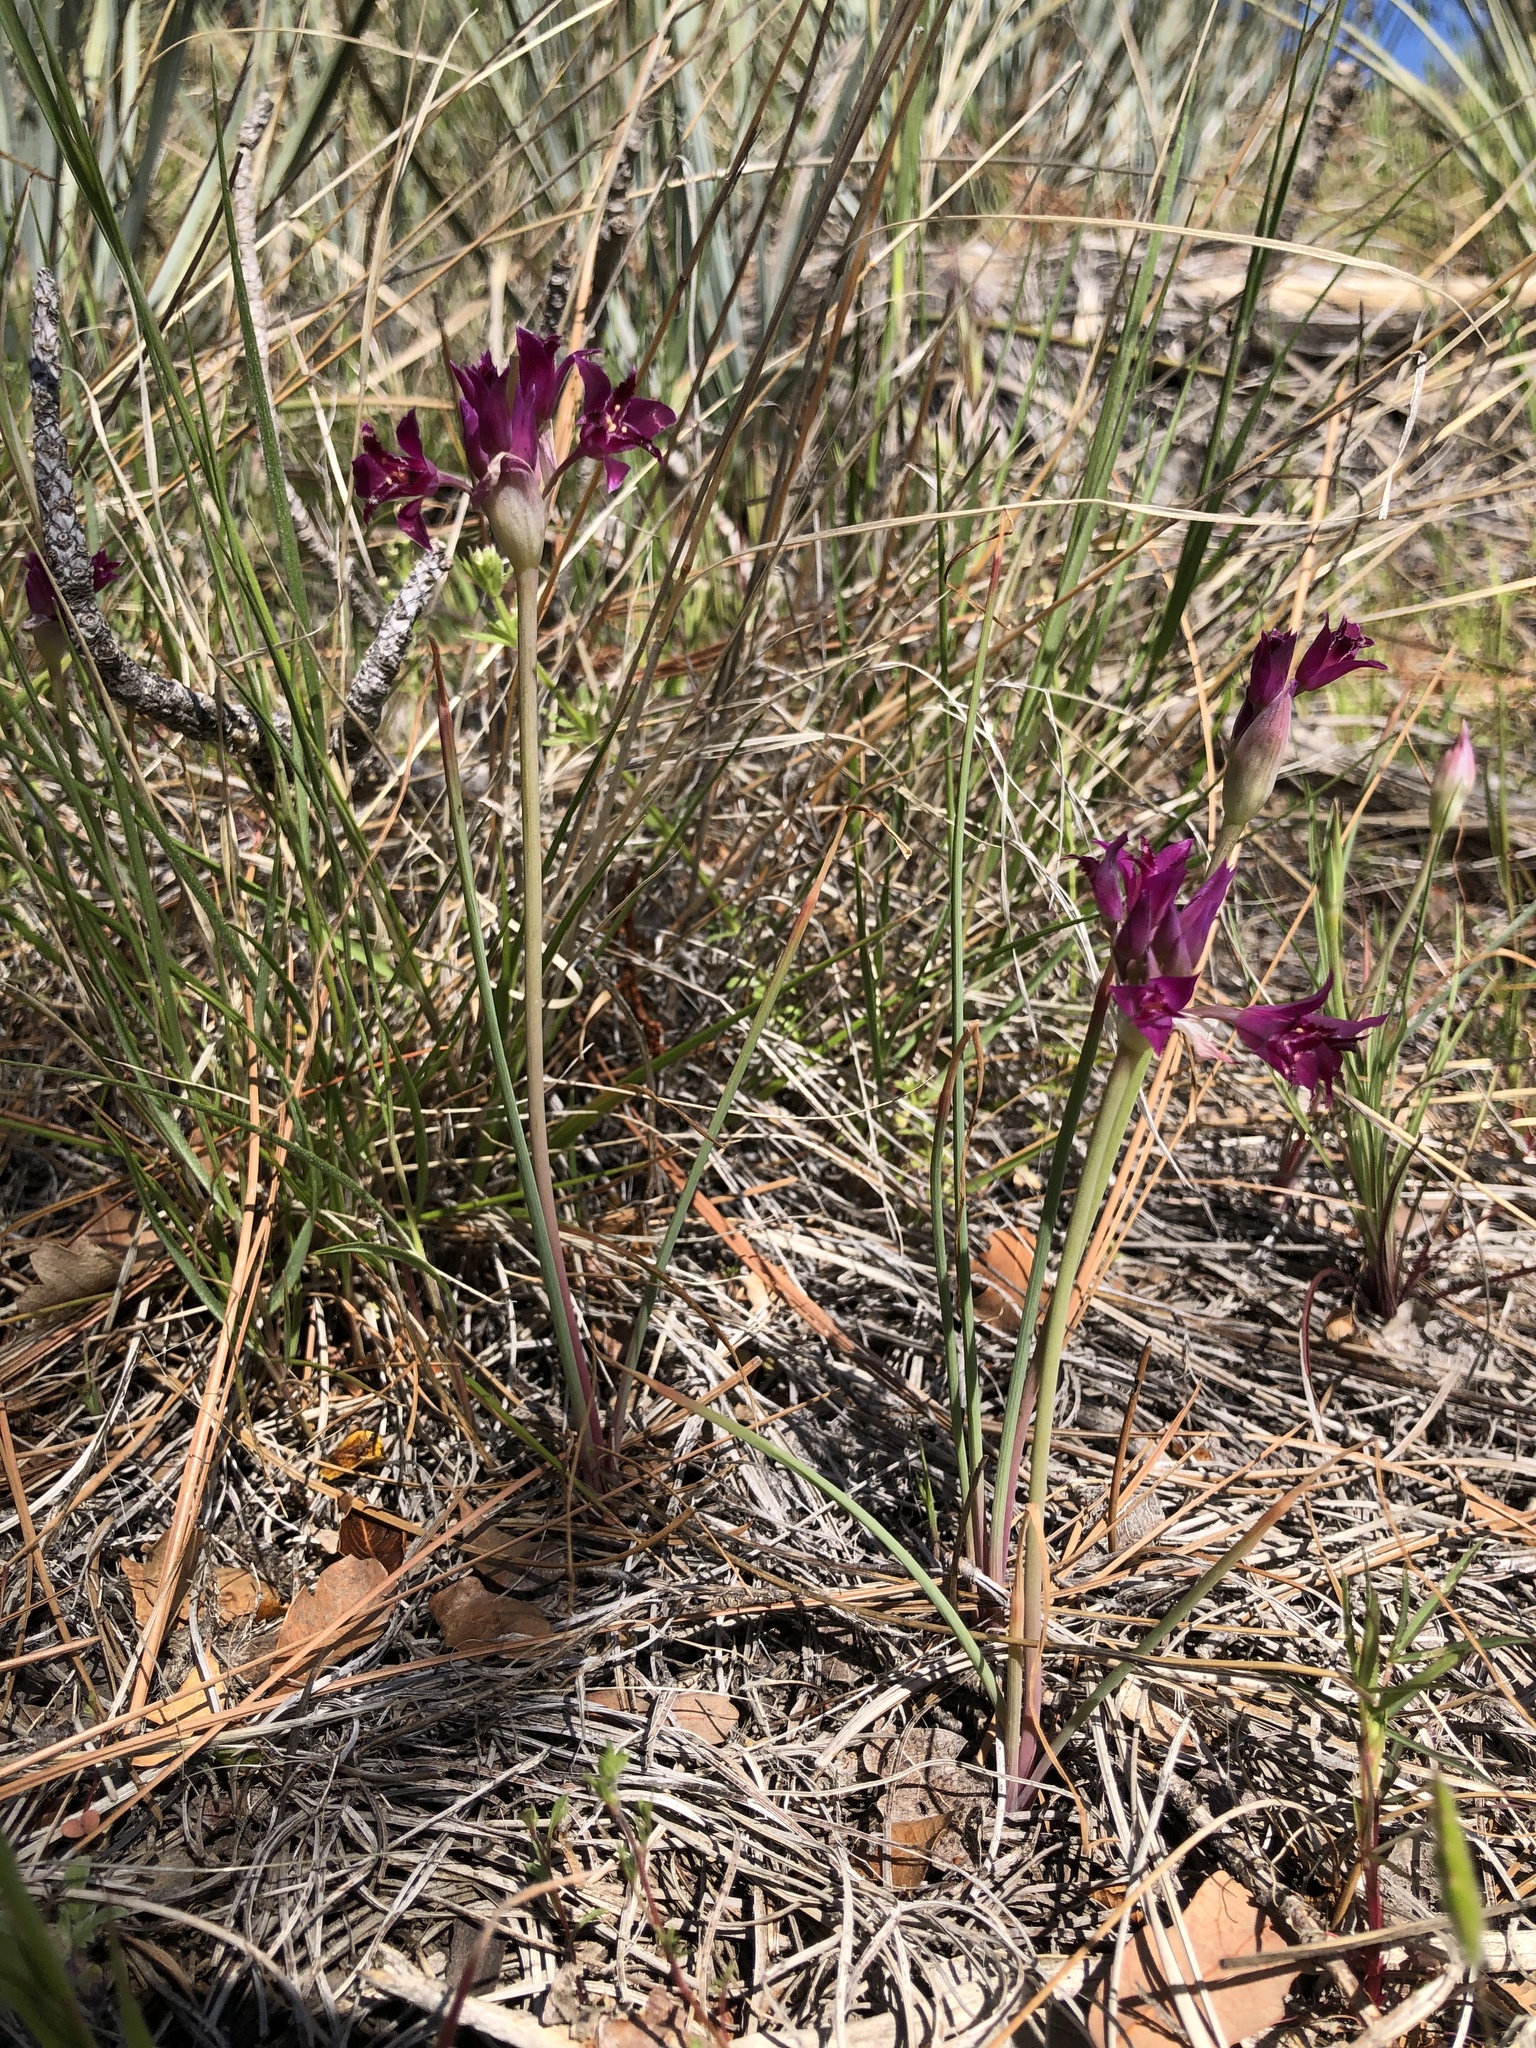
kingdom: Plantae
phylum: Tracheophyta
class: Liliopsida
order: Asparagales
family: Amaryllidaceae
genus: Allium
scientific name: Allium crispum
